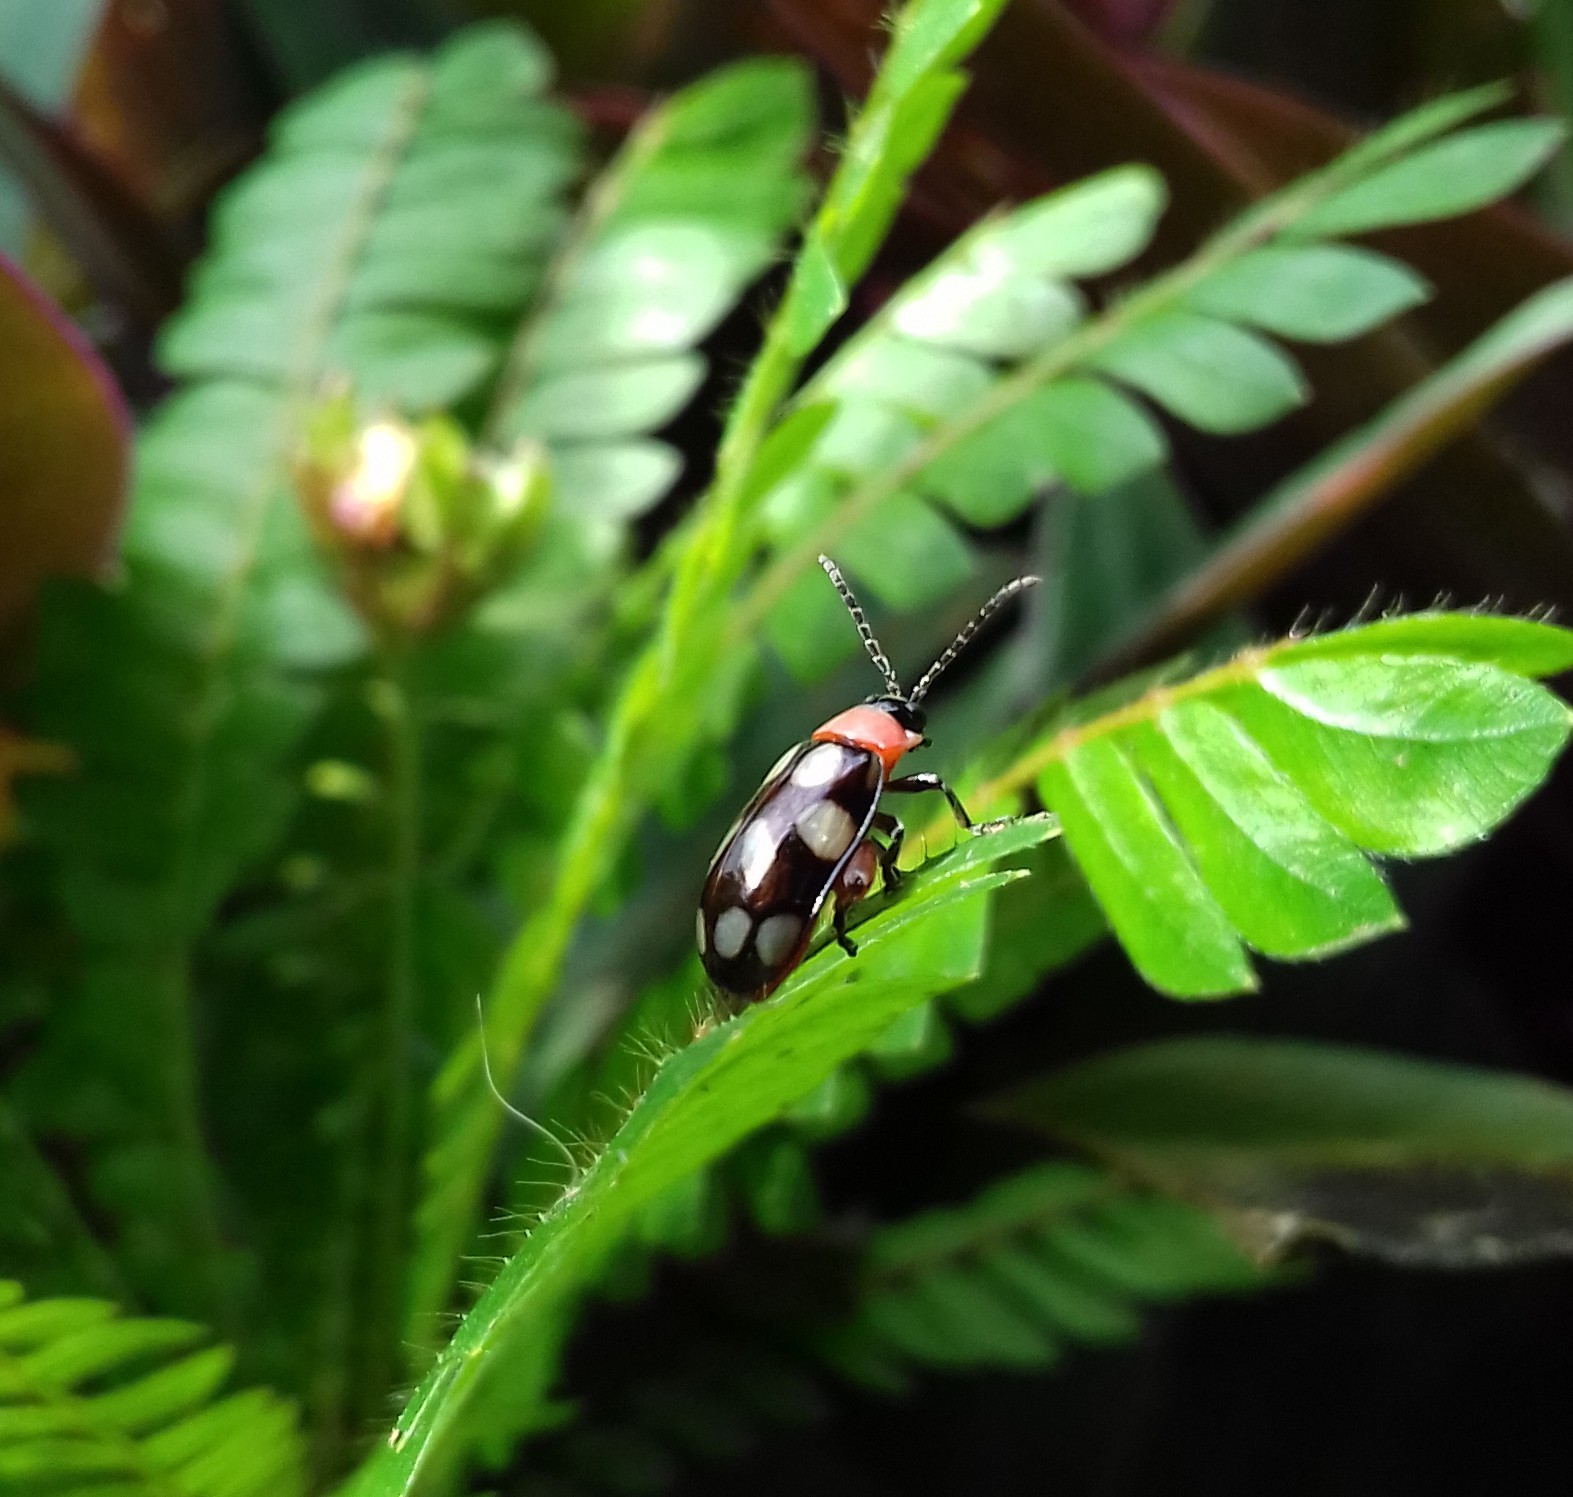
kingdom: Animalia
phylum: Arthropoda
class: Insecta
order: Coleoptera
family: Chrysomelidae
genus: Omophoita
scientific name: Omophoita
